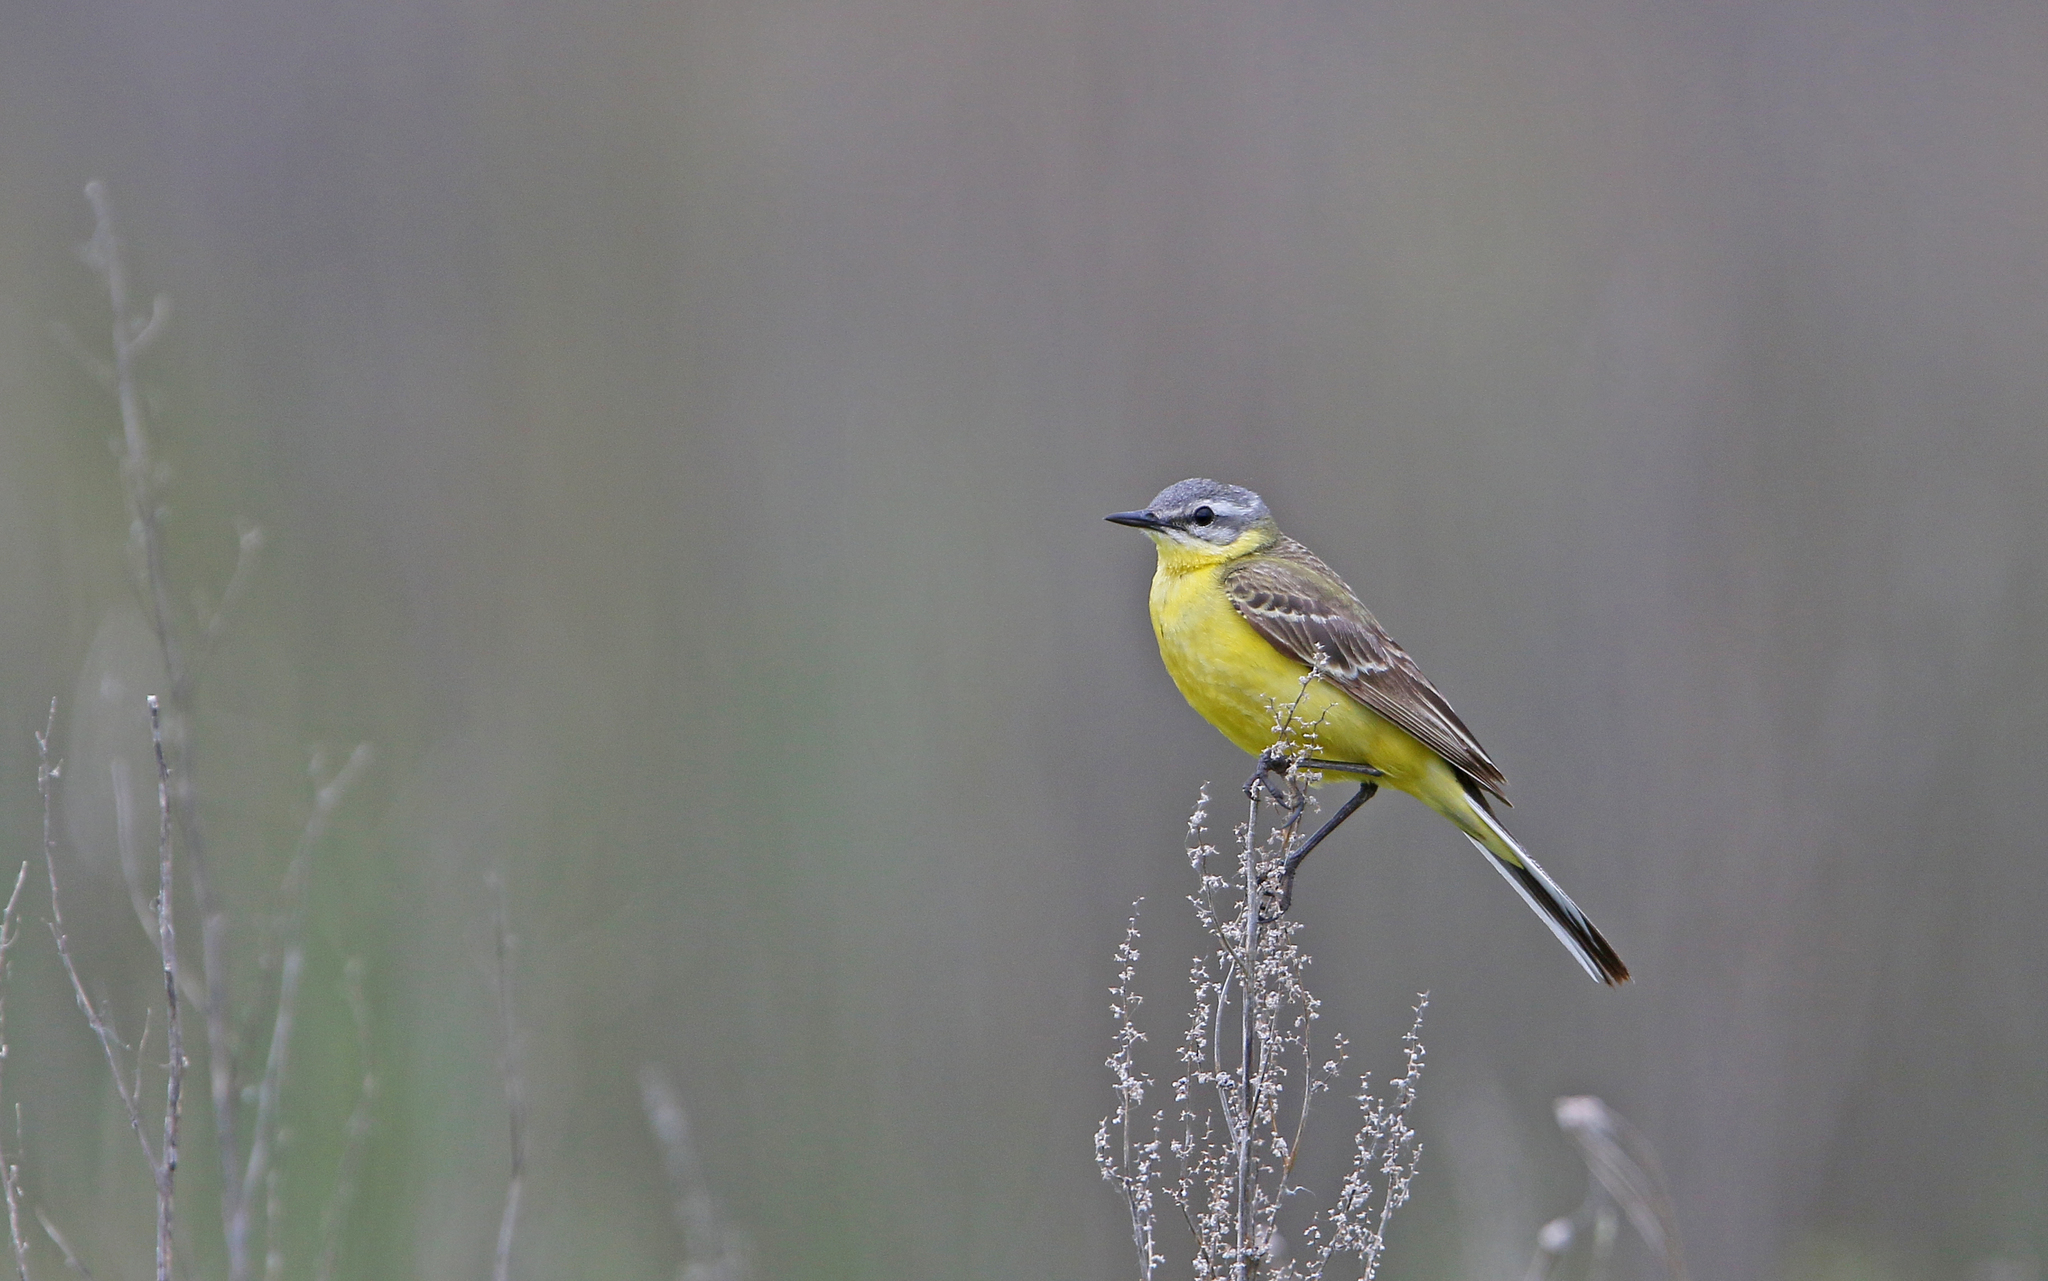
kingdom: Animalia
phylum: Chordata
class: Aves
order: Passeriformes
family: Motacillidae
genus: Motacilla
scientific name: Motacilla flava
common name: Western yellow wagtail
